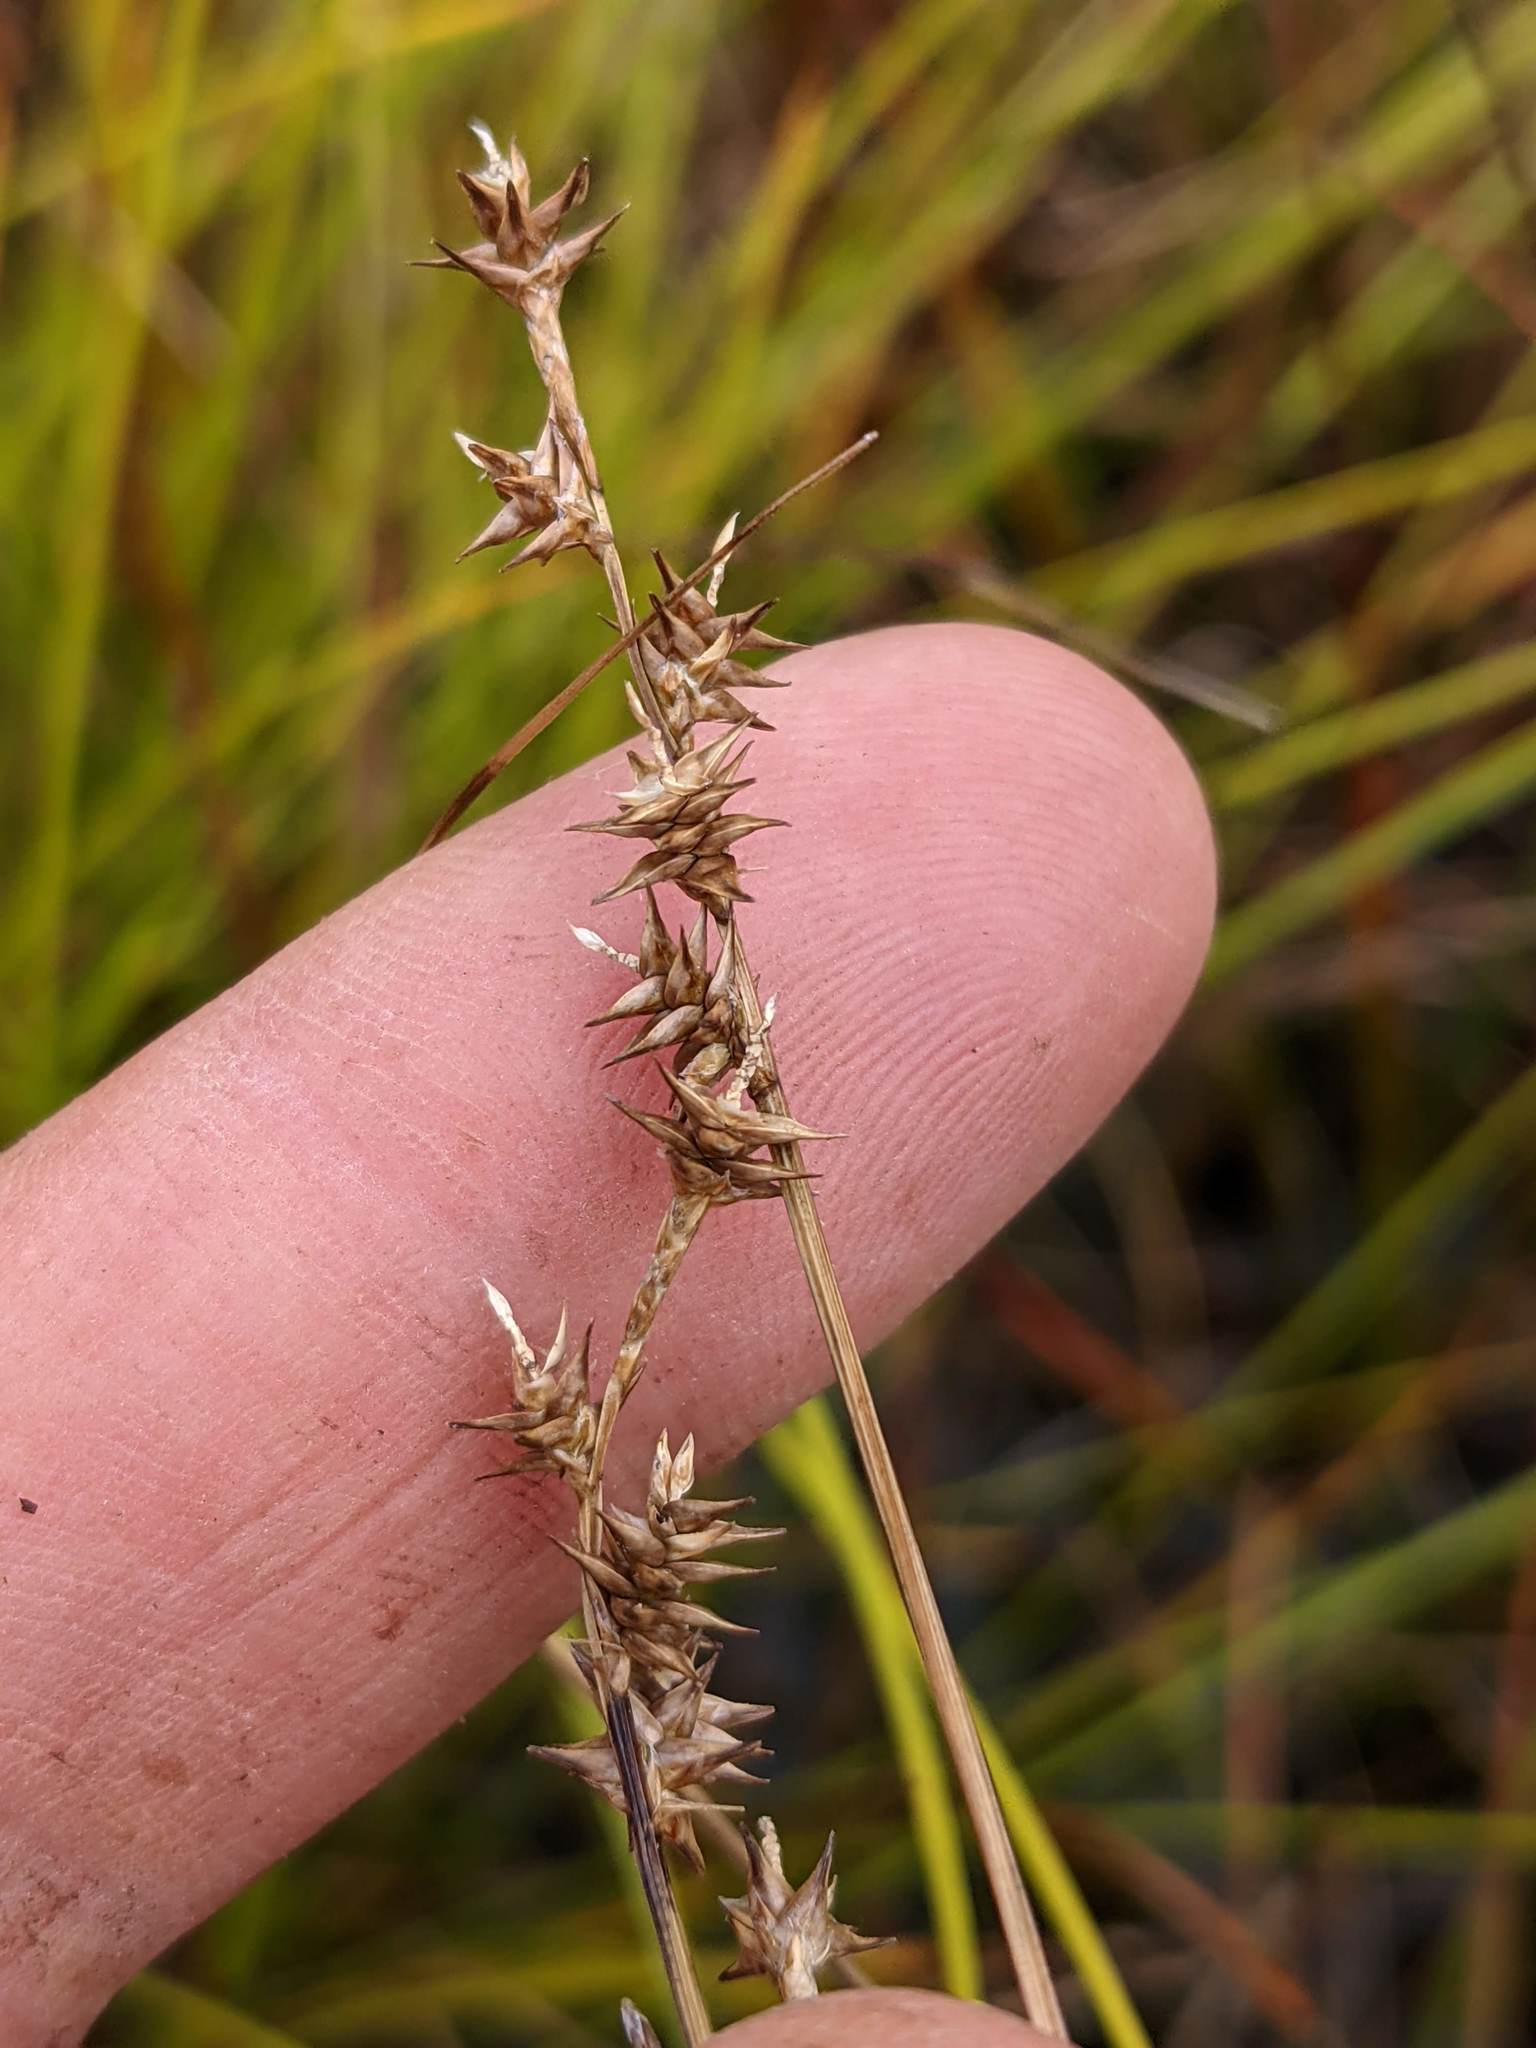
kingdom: Plantae
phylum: Tracheophyta
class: Liliopsida
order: Poales
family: Cyperaceae
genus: Carex
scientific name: Carex echinata
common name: Star sedge
